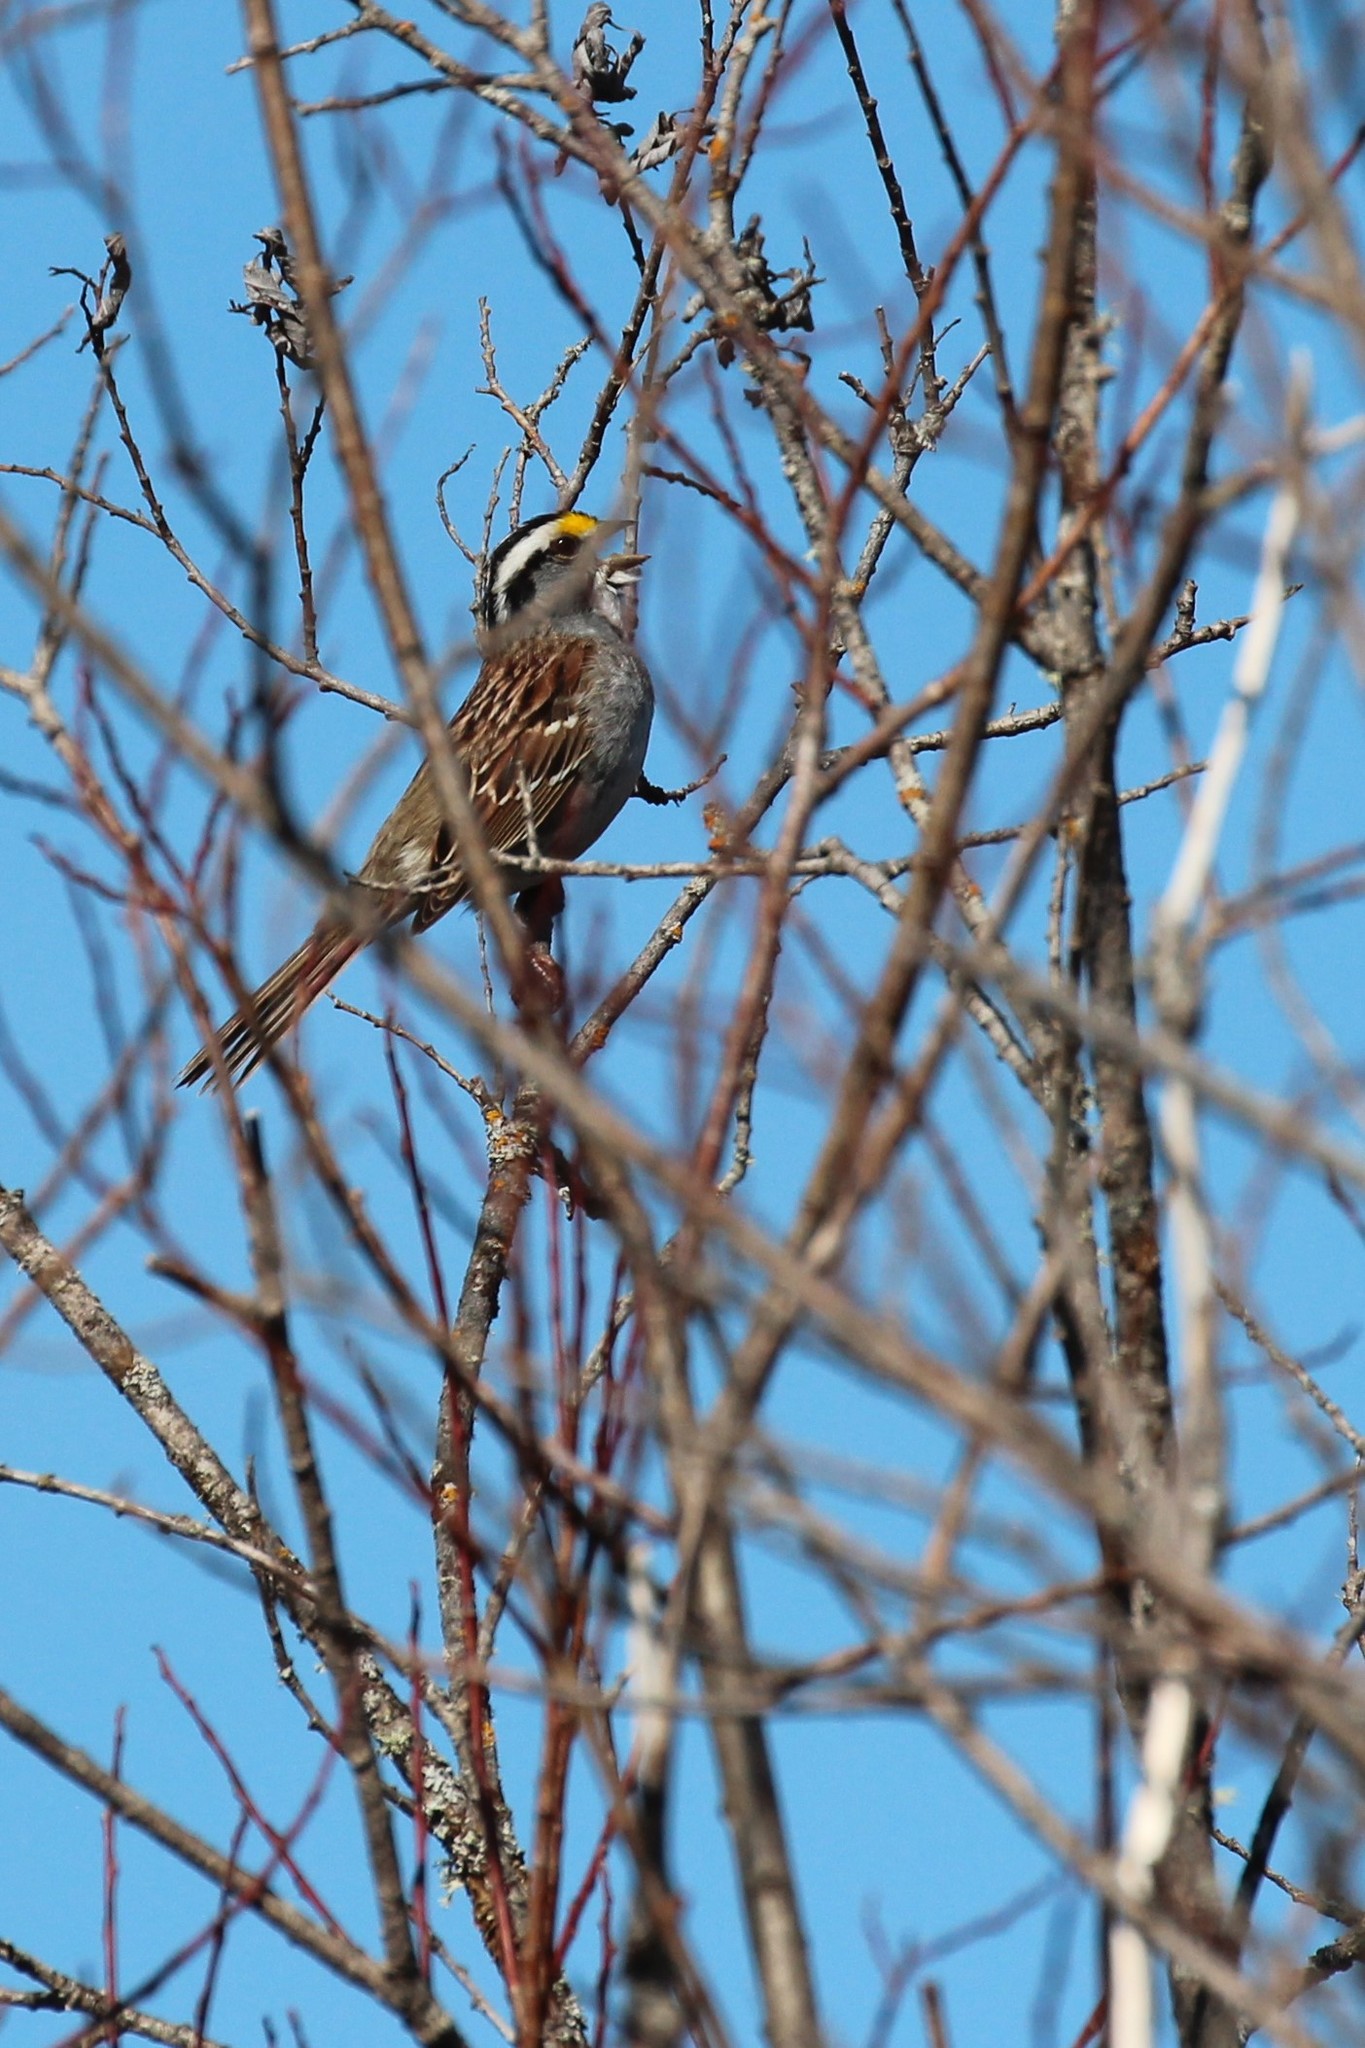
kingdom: Animalia
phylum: Chordata
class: Aves
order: Passeriformes
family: Passerellidae
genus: Zonotrichia
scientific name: Zonotrichia albicollis
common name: White-throated sparrow
